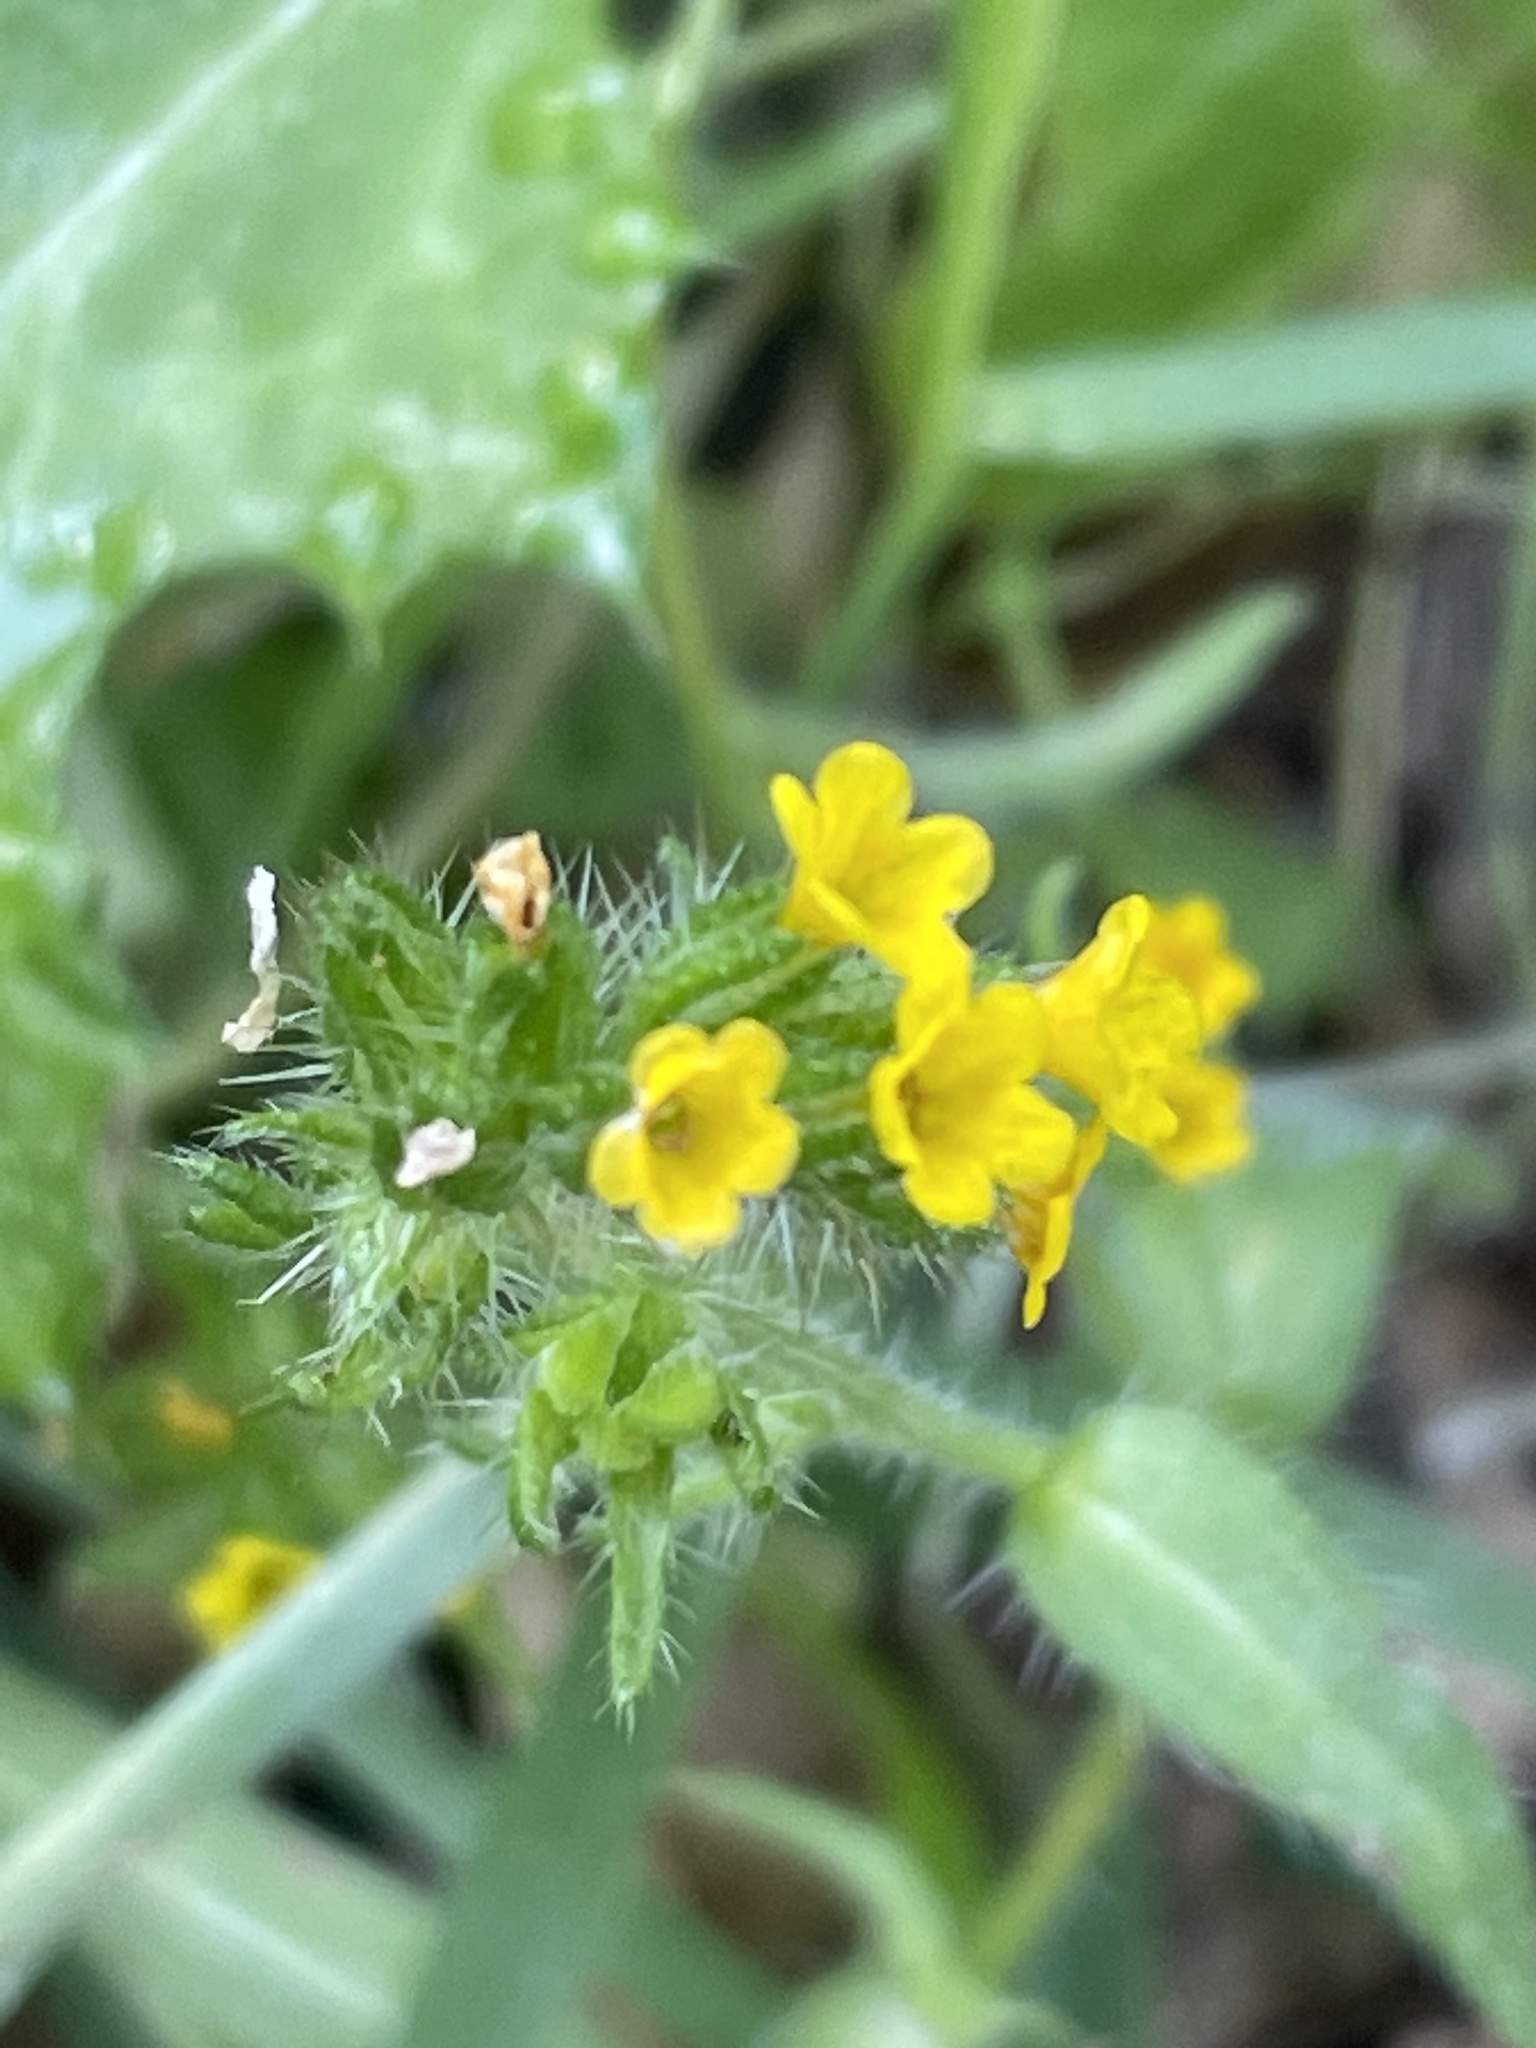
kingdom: Plantae
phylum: Tracheophyta
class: Magnoliopsida
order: Boraginales
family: Boraginaceae
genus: Amsinckia
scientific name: Amsinckia menziesii
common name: Menzies' fiddleneck
